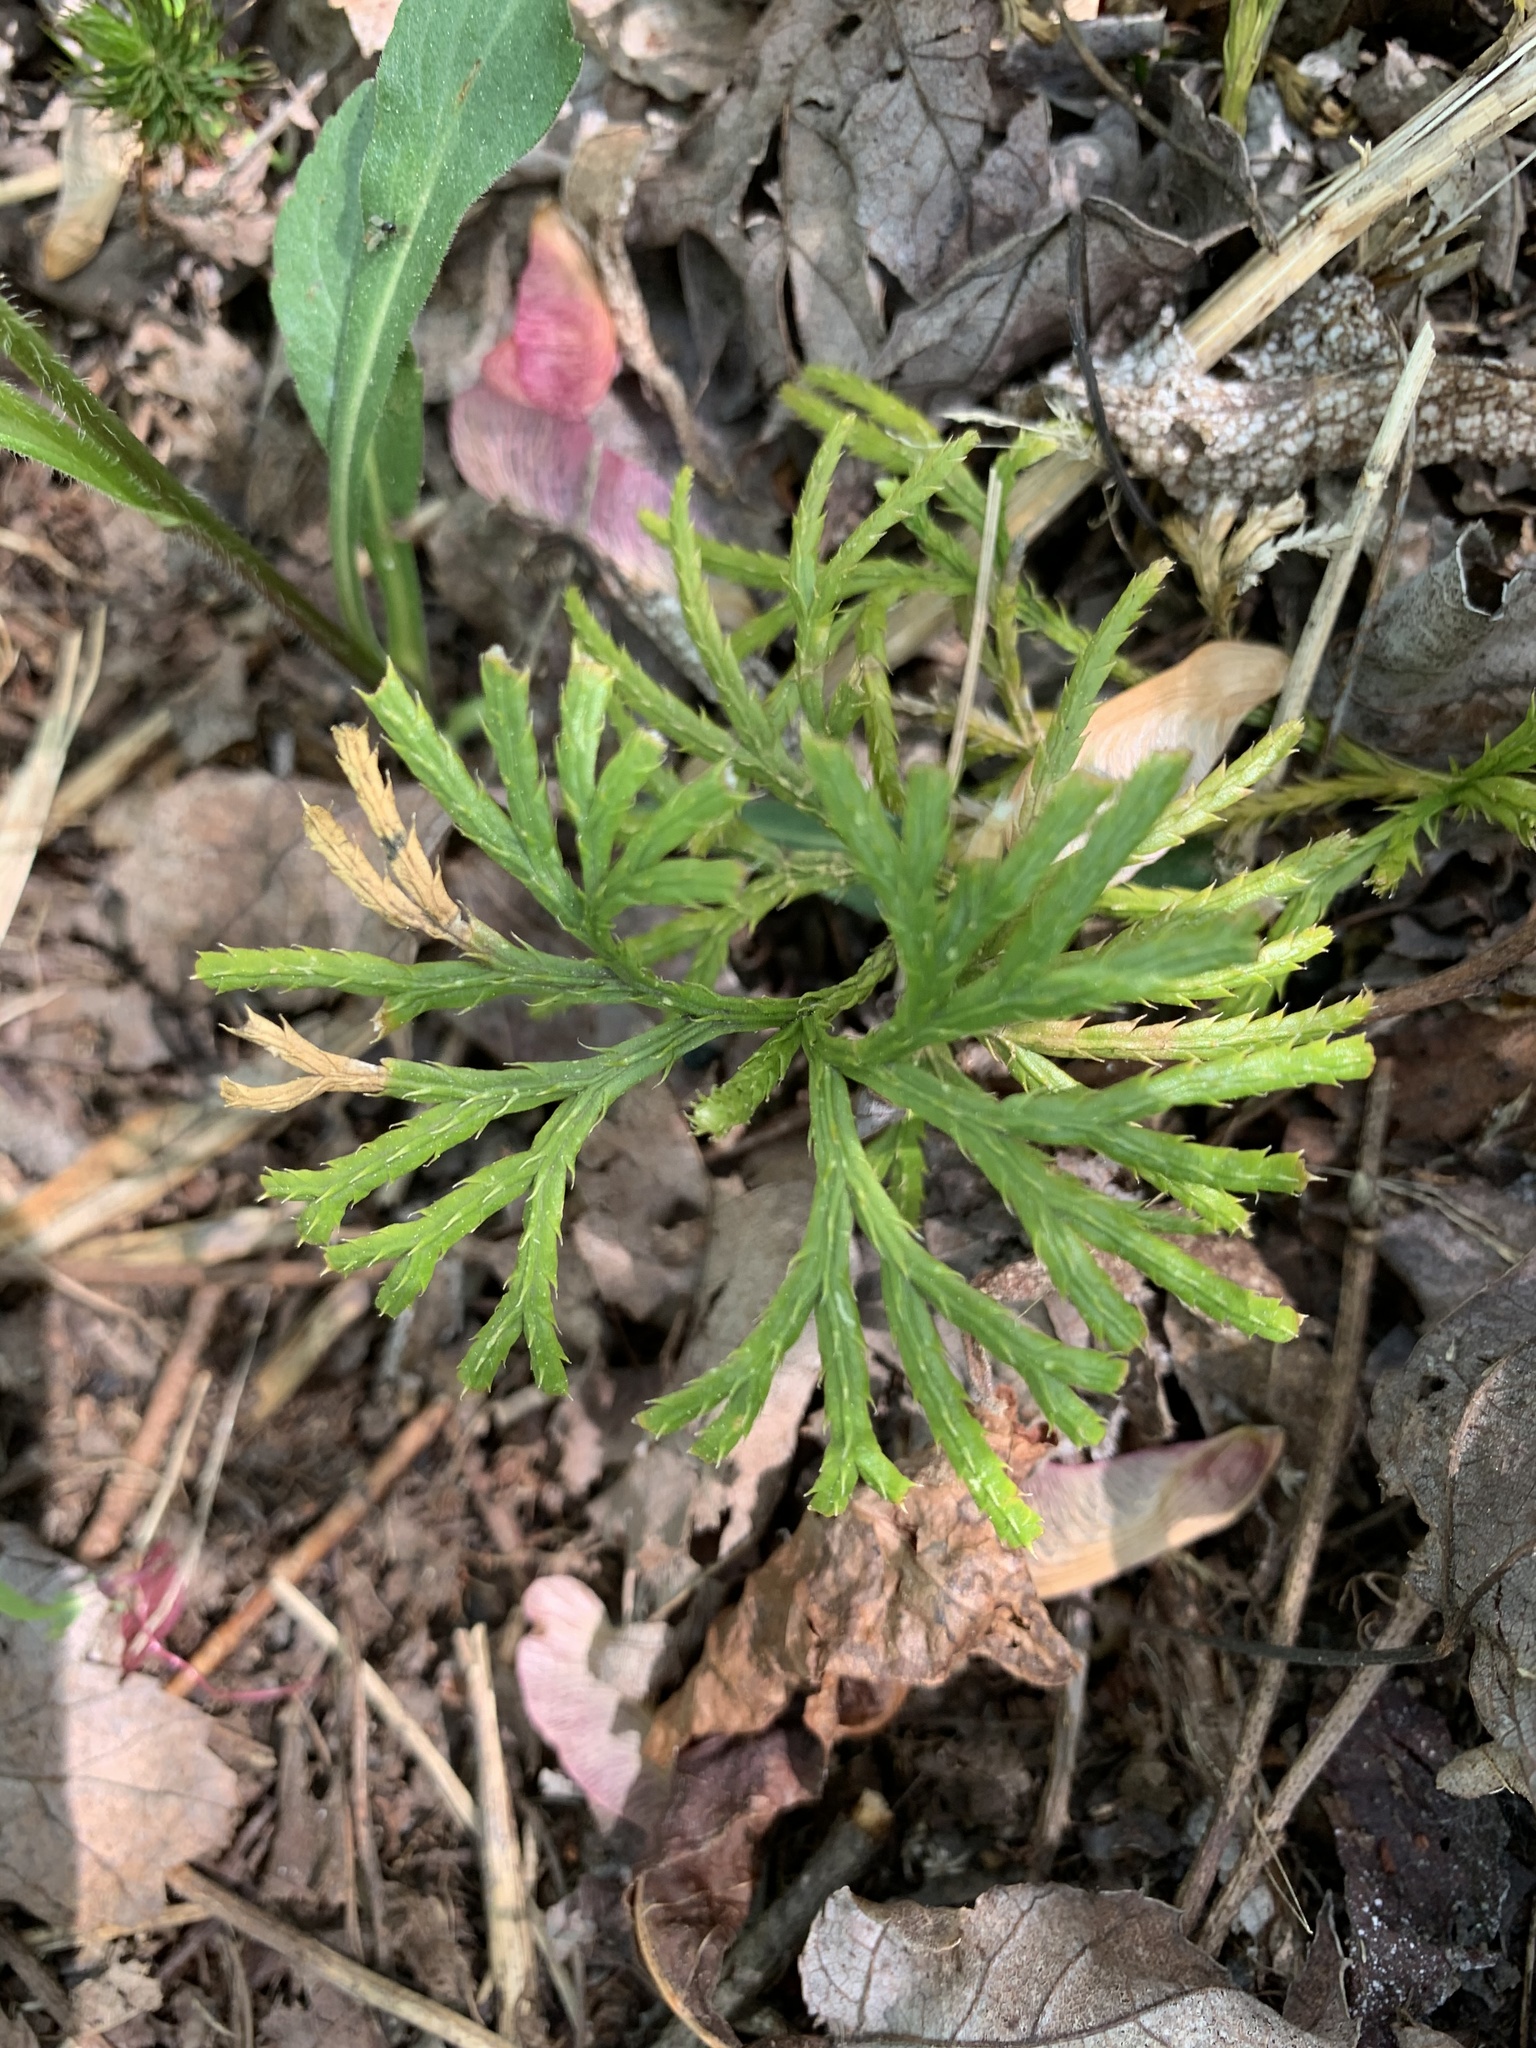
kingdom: Plantae
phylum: Tracheophyta
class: Lycopodiopsida
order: Lycopodiales
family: Lycopodiaceae
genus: Diphasiastrum
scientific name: Diphasiastrum digitatum
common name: Southern running-pine
